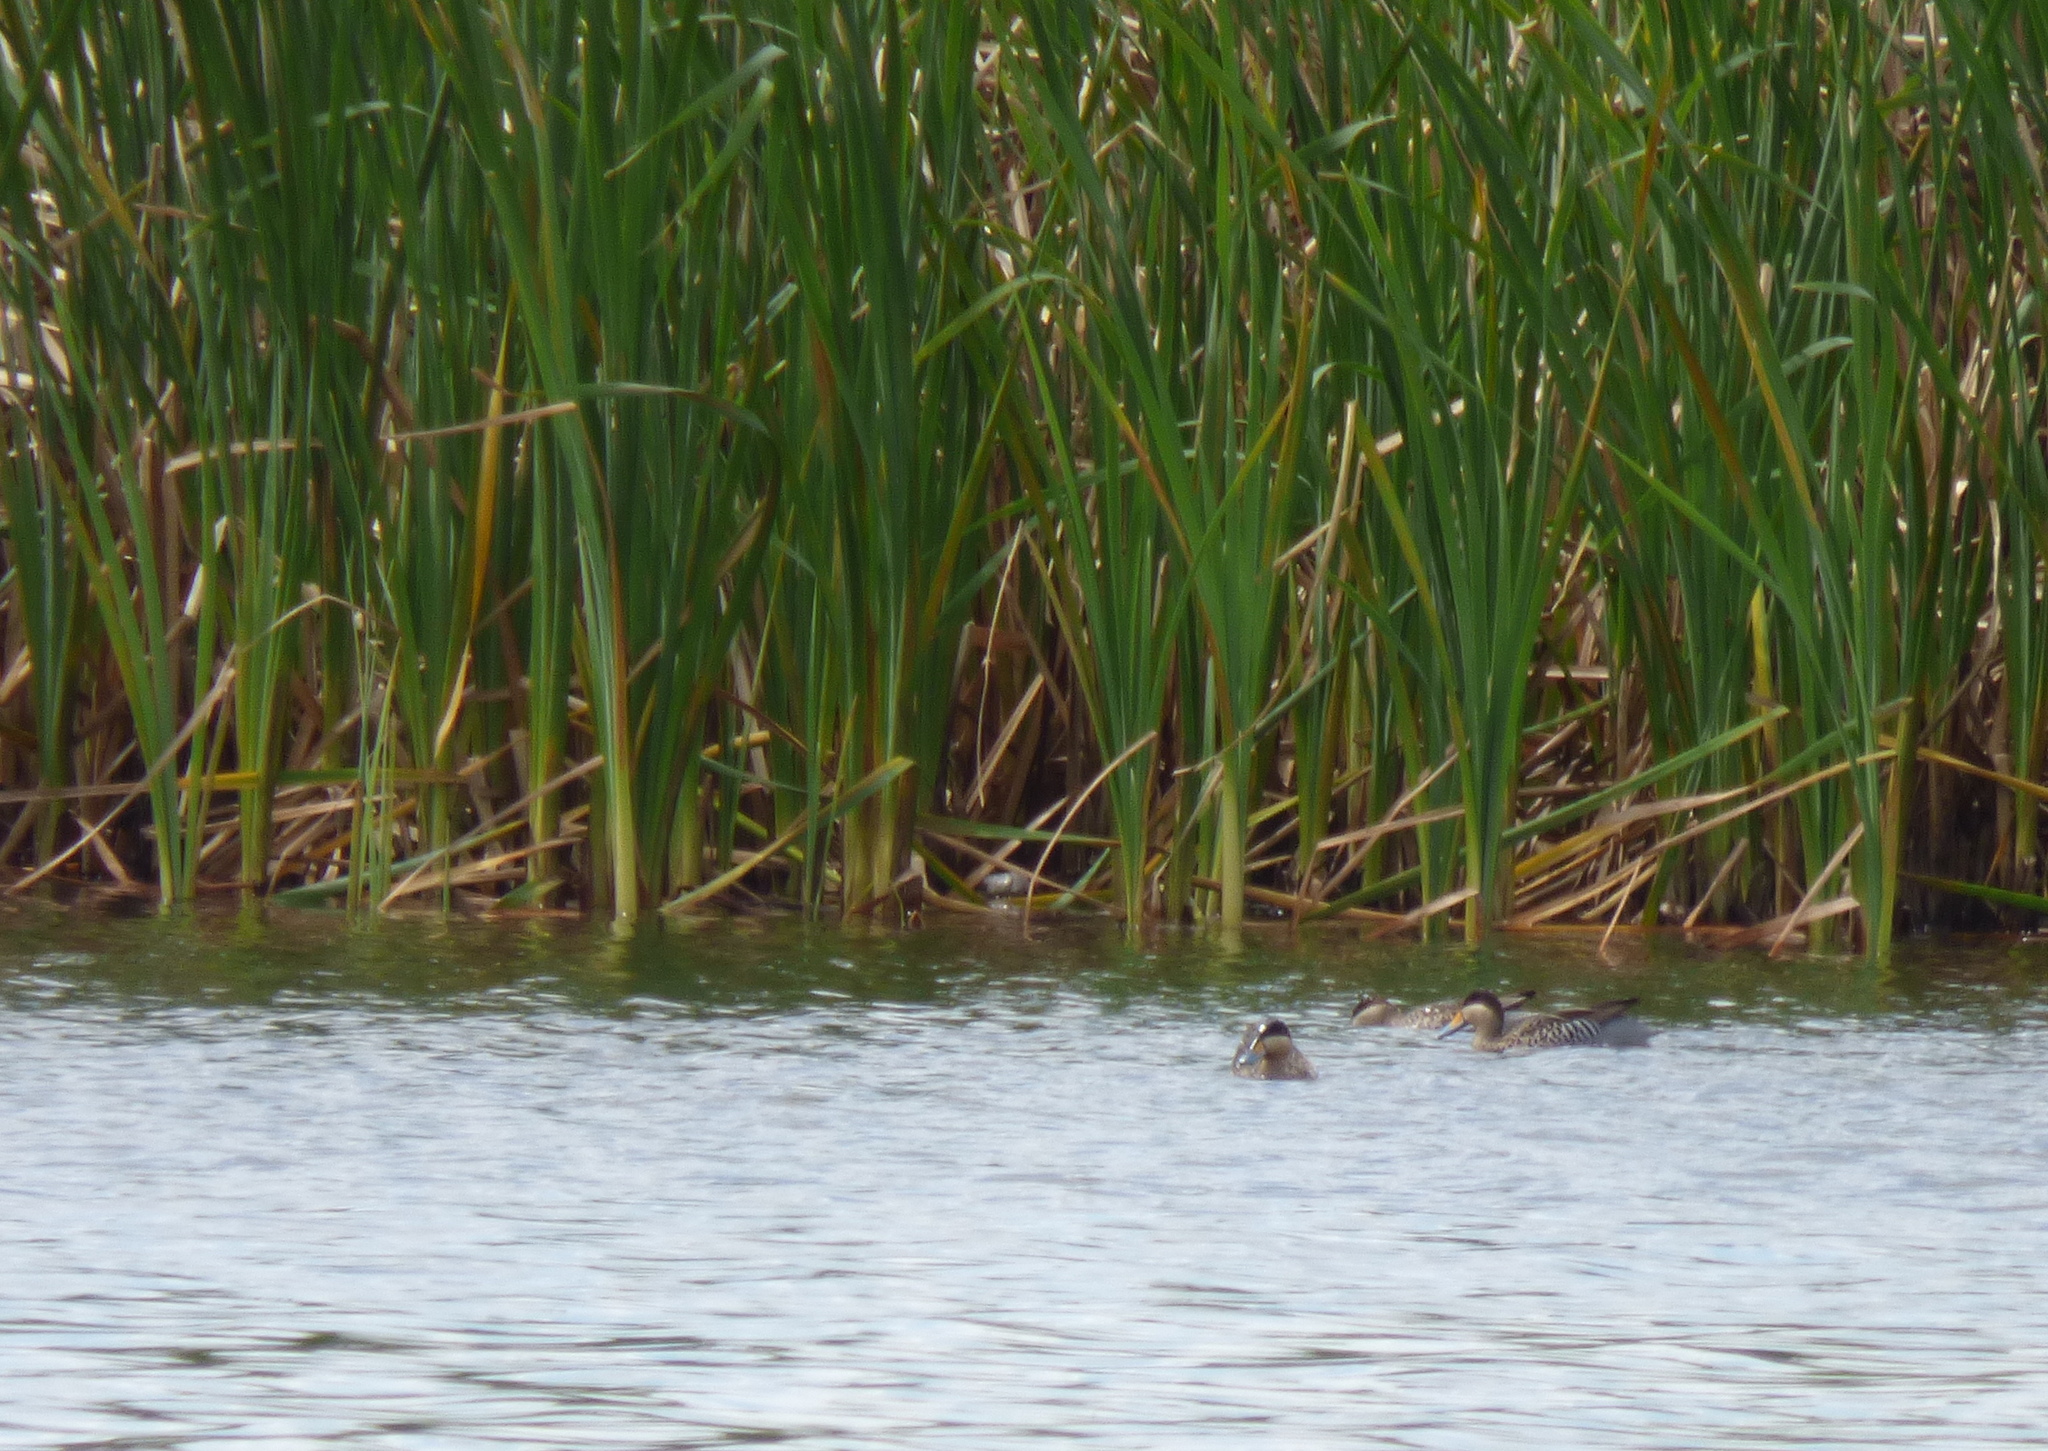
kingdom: Animalia
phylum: Chordata
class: Aves
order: Anseriformes
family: Anatidae
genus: Spatula
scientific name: Spatula versicolor
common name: Silver teal
